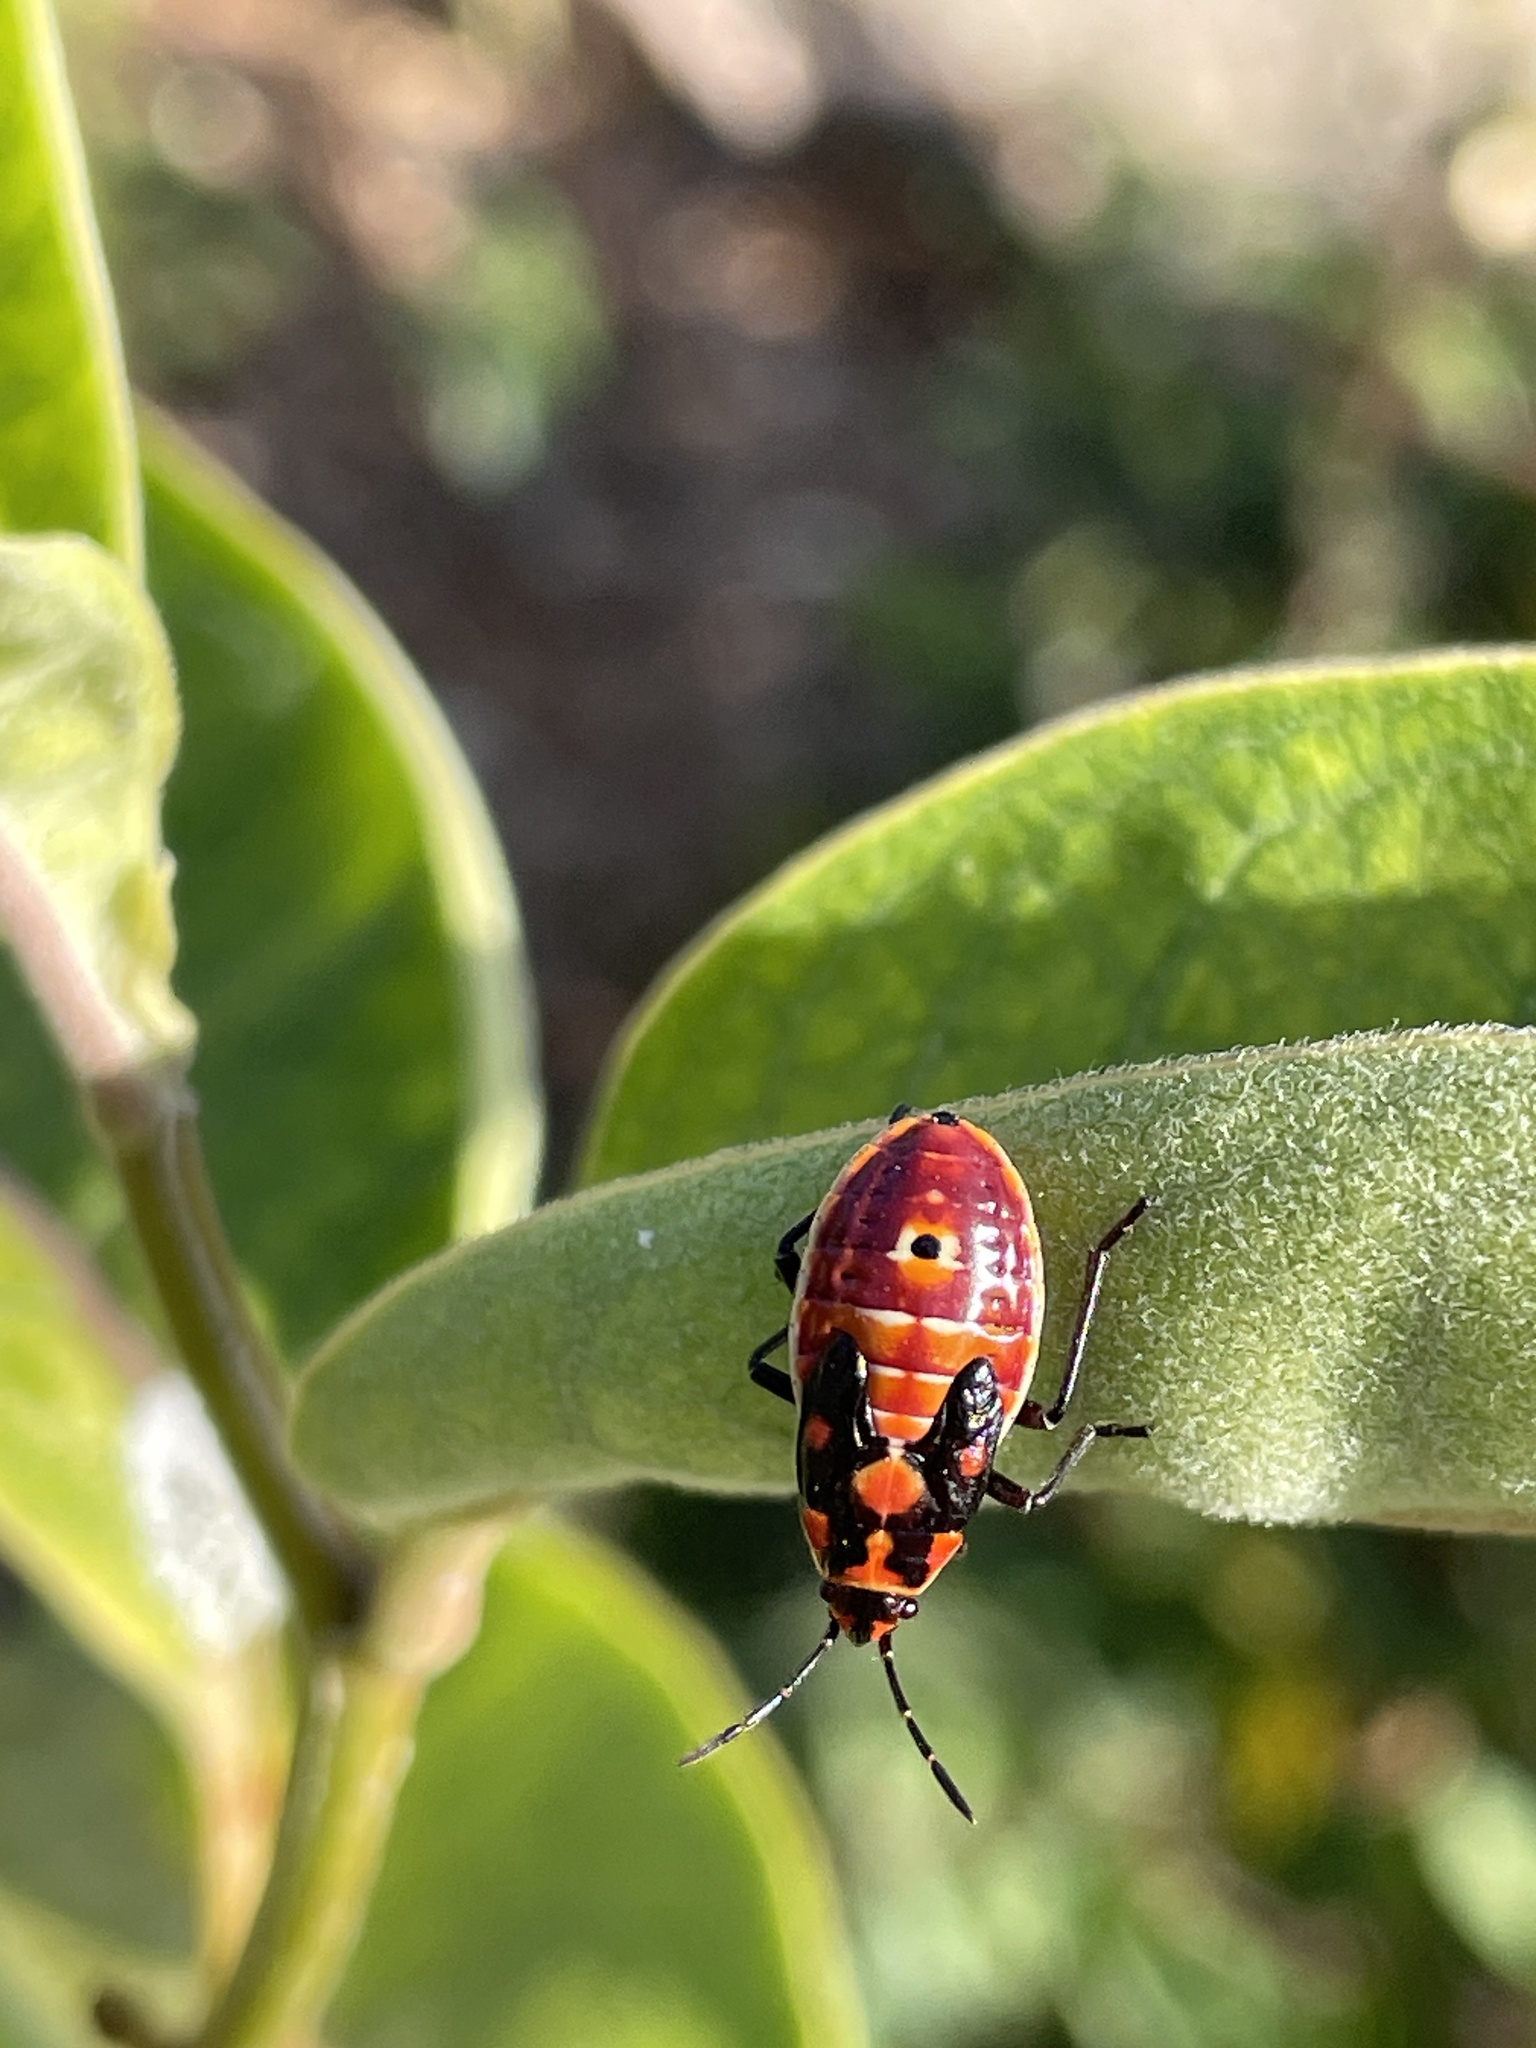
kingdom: Animalia
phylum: Arthropoda
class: Insecta
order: Hemiptera
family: Lygaeidae
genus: Spilostethus
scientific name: Spilostethus pandurus
